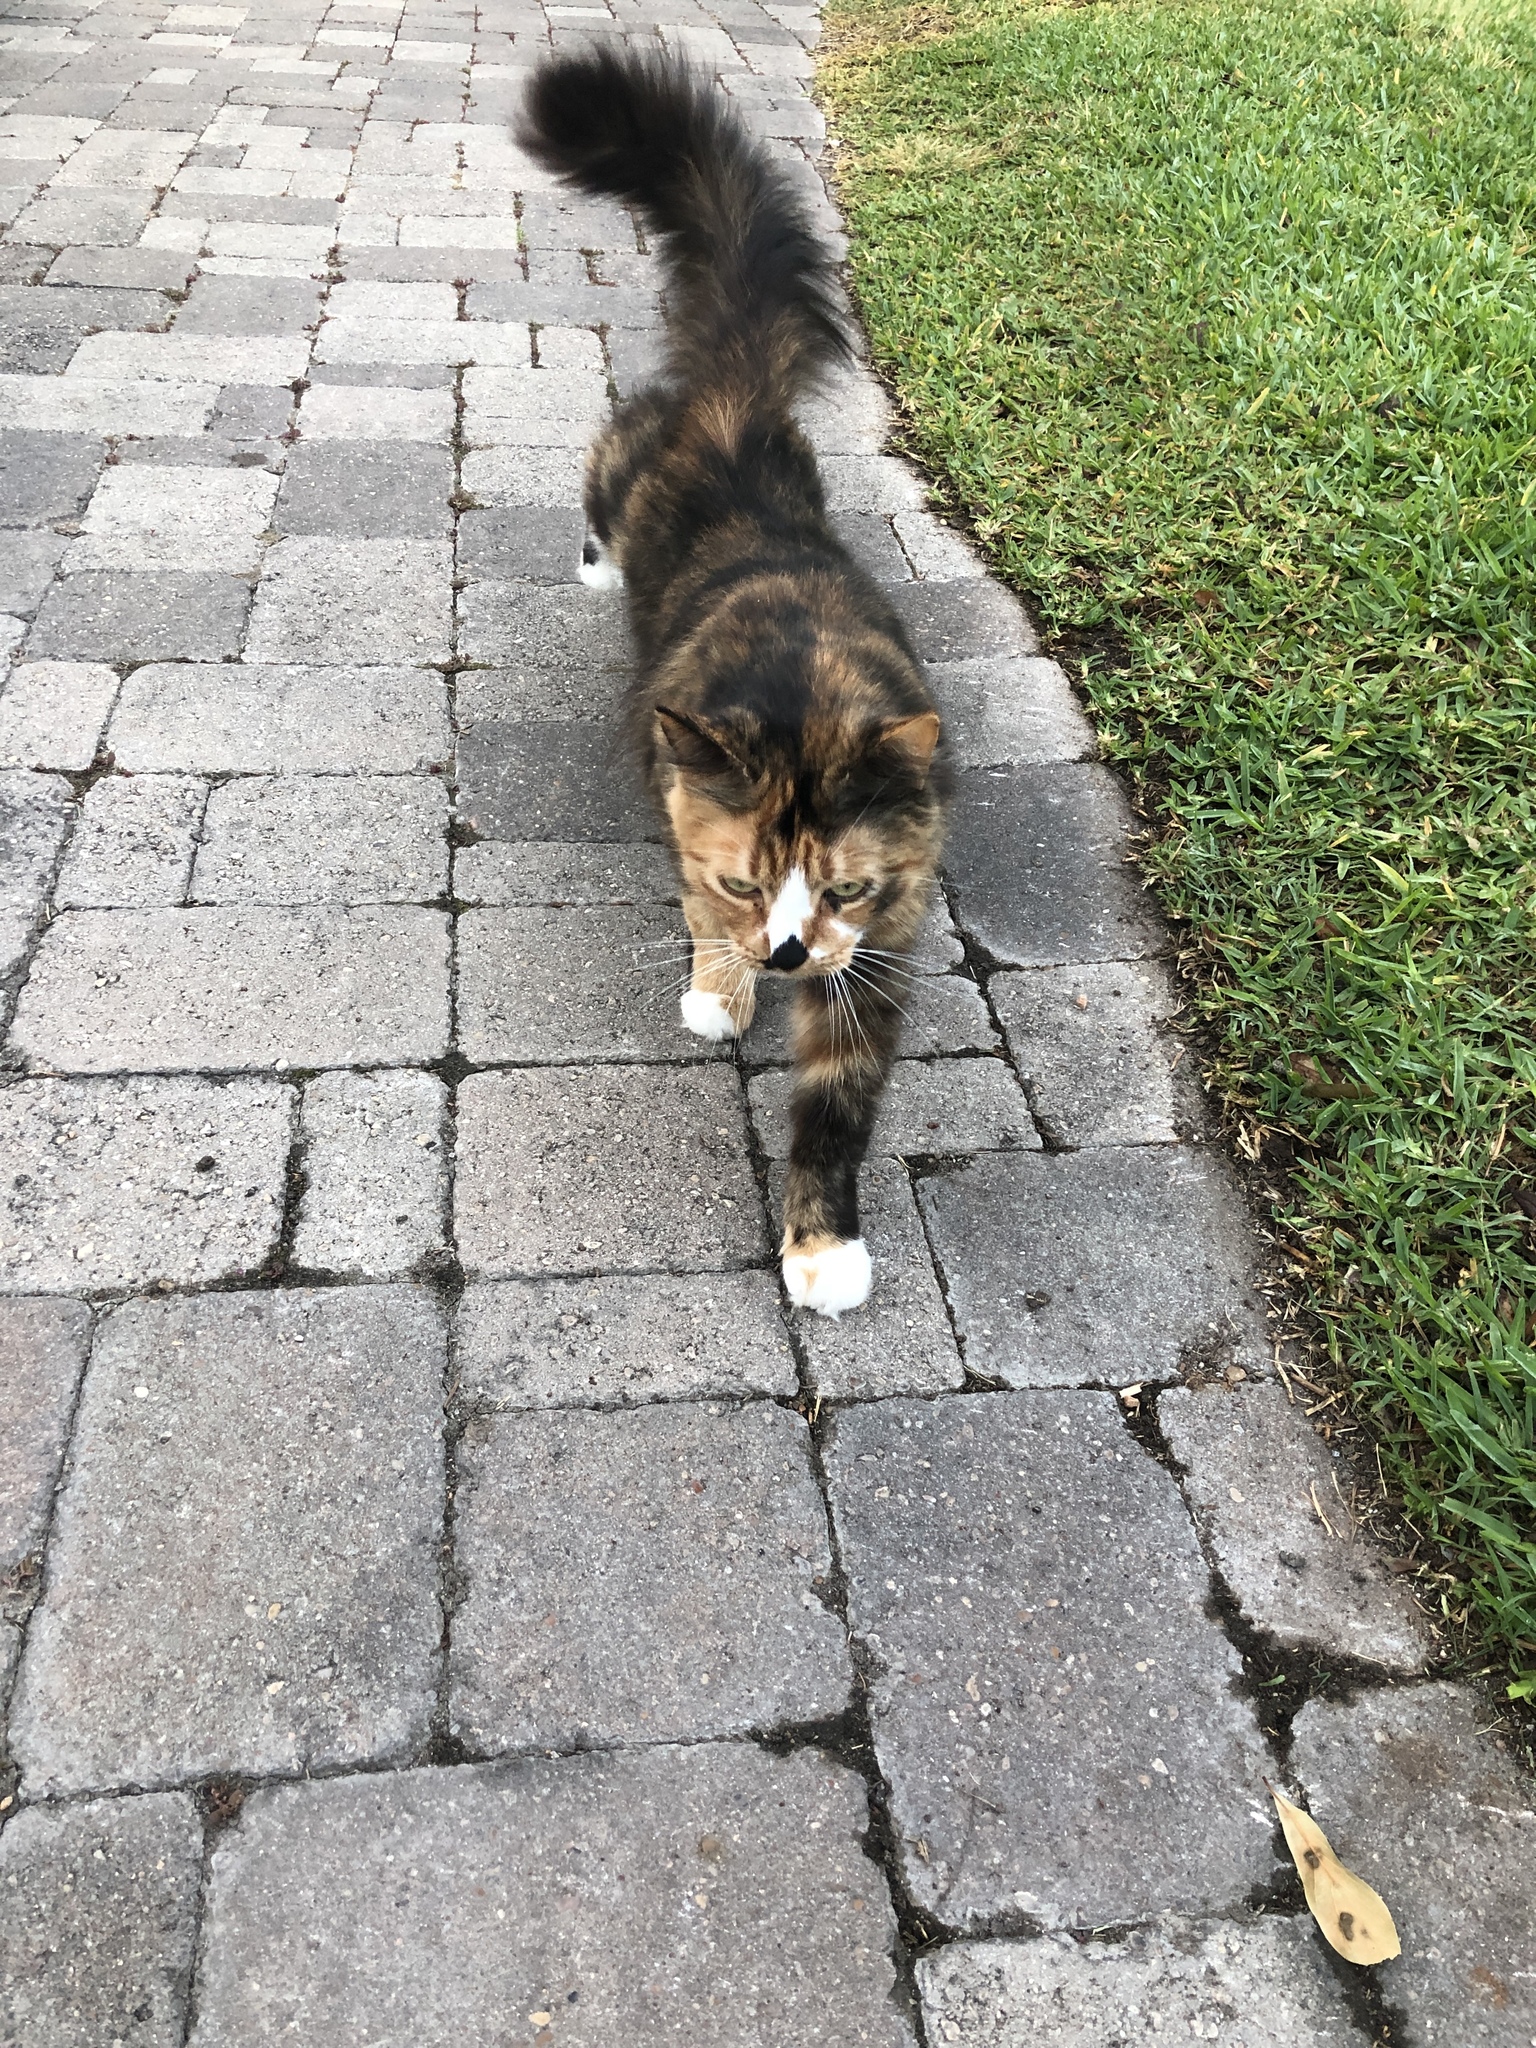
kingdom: Animalia
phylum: Chordata
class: Mammalia
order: Carnivora
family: Felidae
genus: Felis
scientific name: Felis catus
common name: Domestic cat
